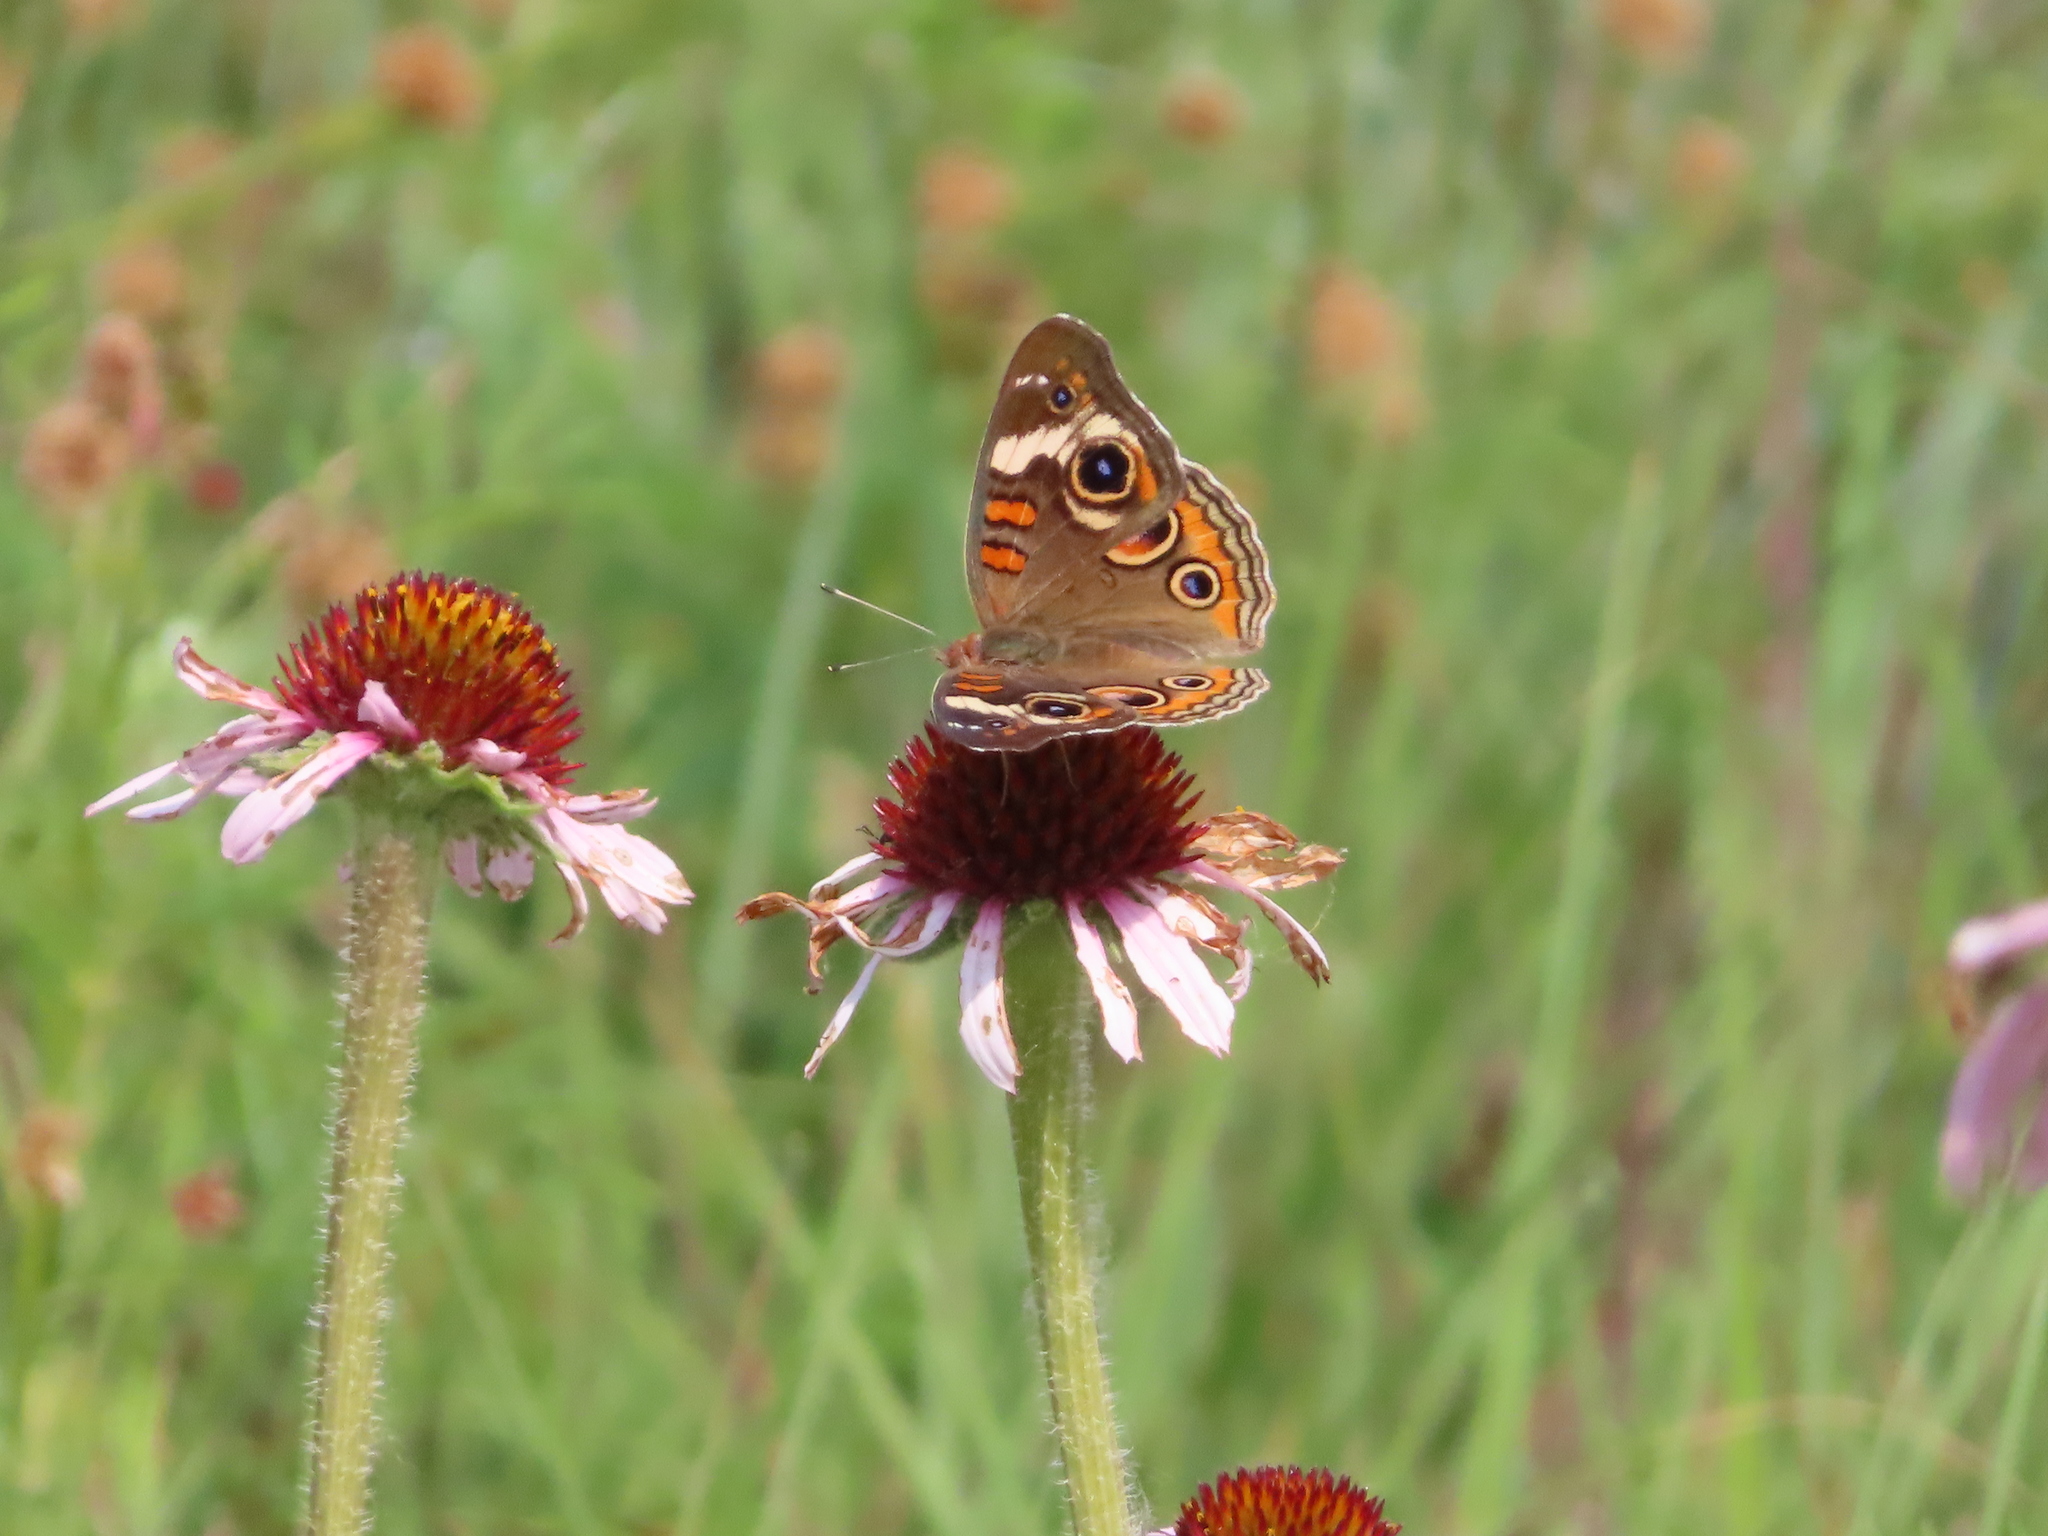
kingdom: Animalia
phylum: Arthropoda
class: Insecta
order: Lepidoptera
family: Nymphalidae
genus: Junonia
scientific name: Junonia coenia
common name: Common buckeye
